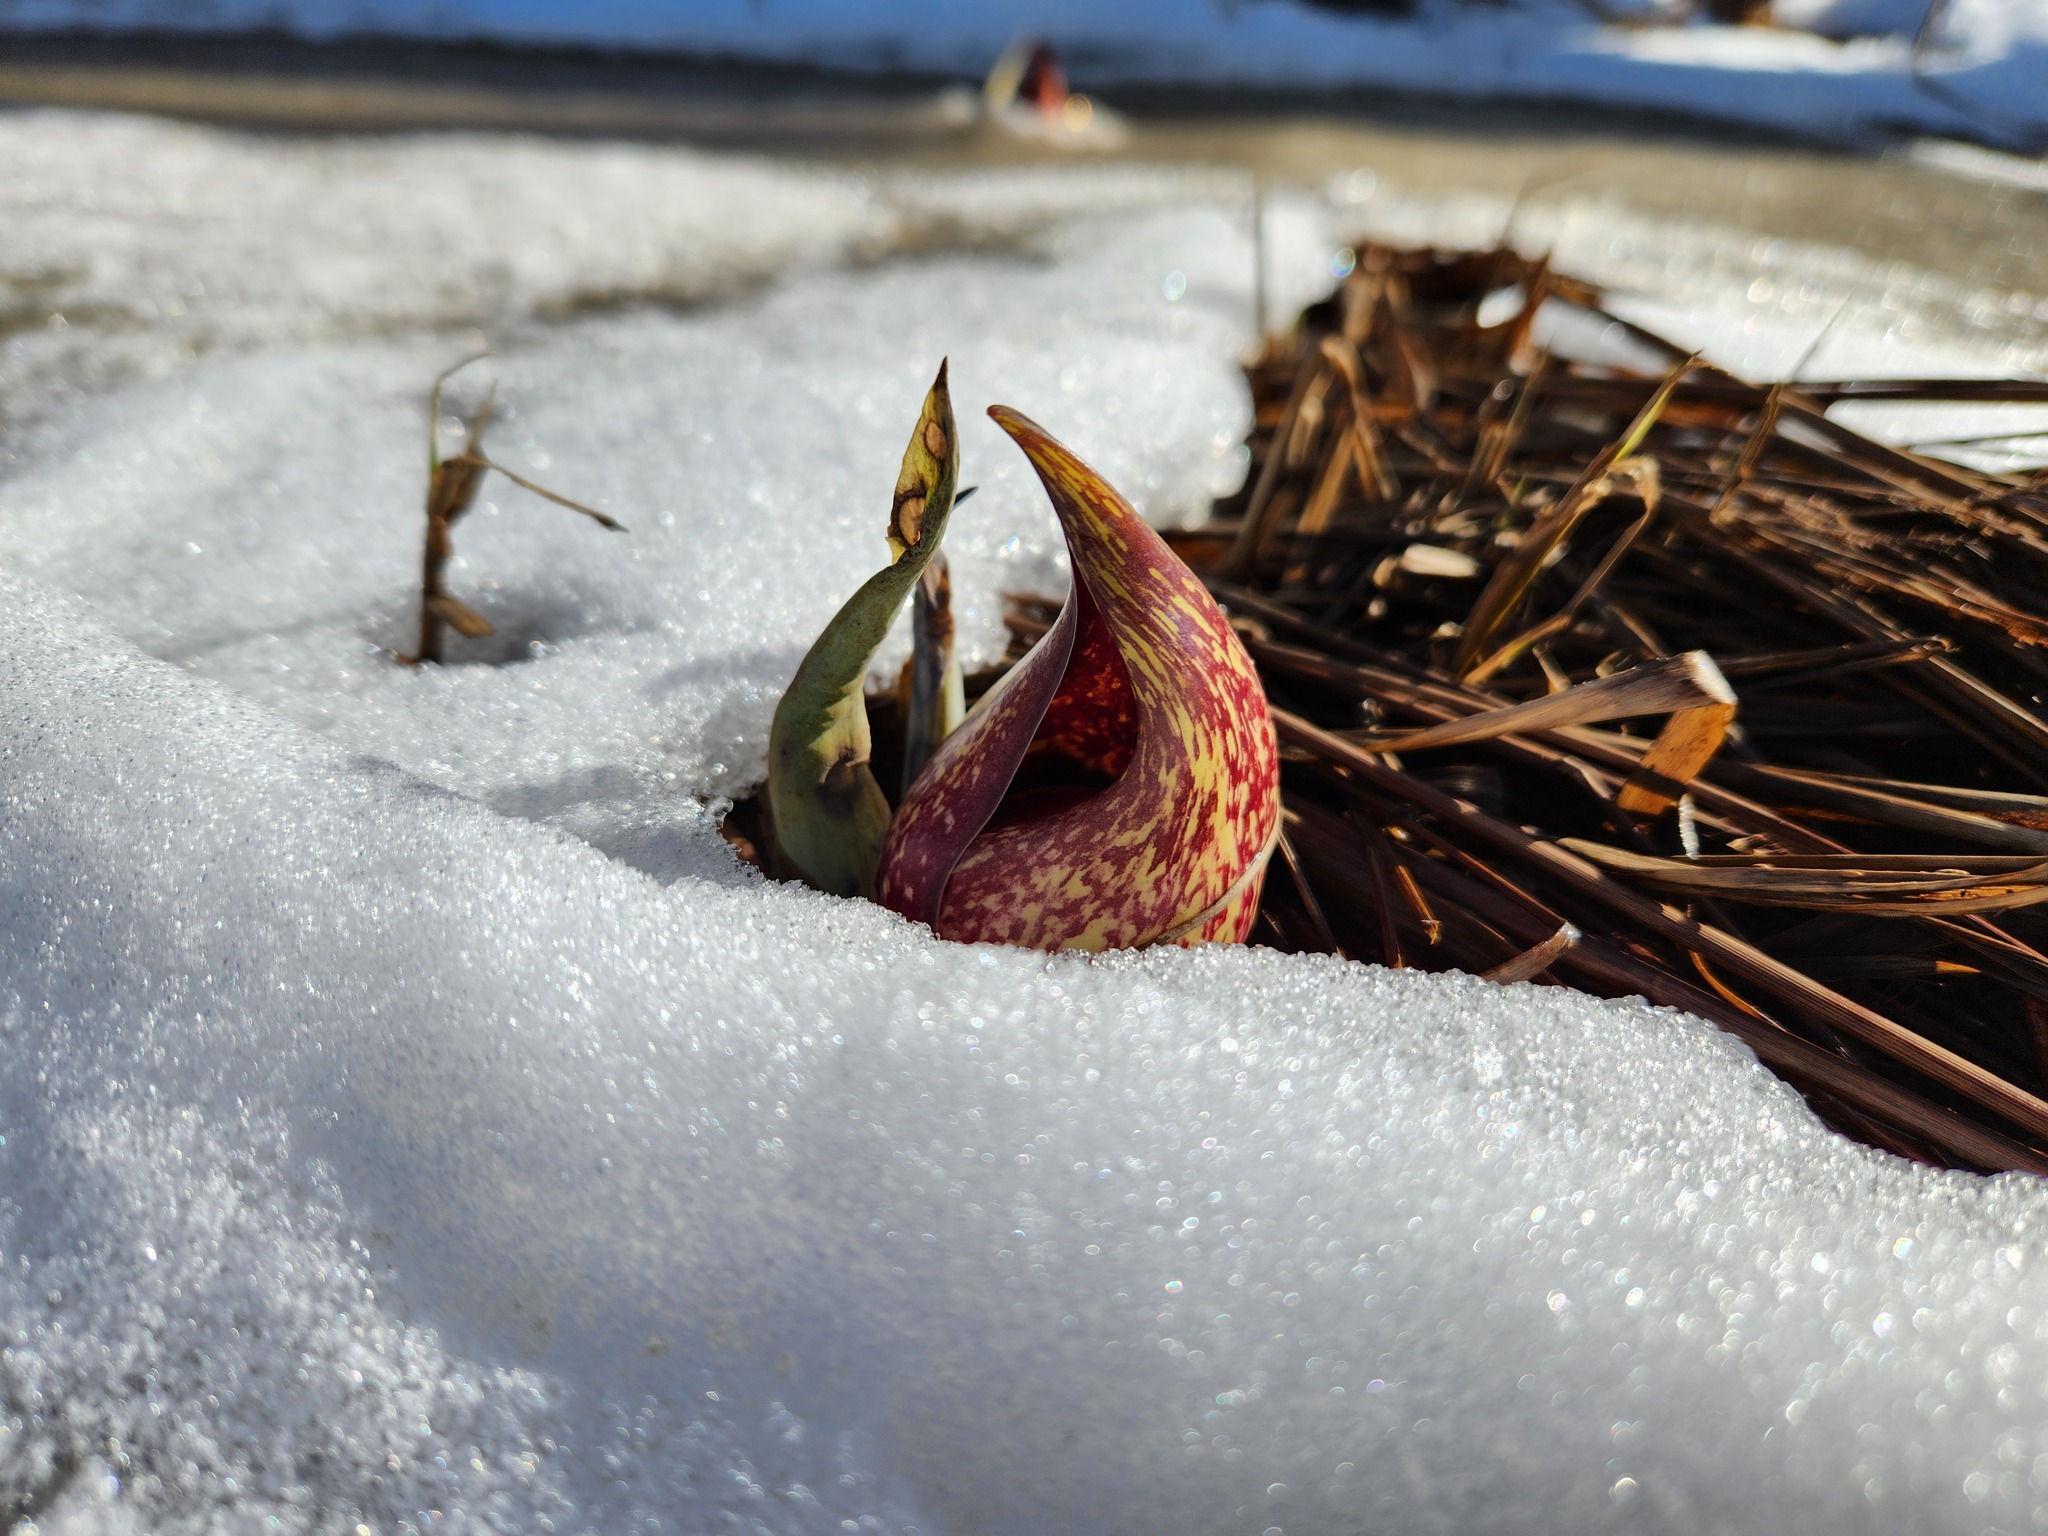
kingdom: Plantae
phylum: Tracheophyta
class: Liliopsida
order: Alismatales
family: Araceae
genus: Symplocarpus
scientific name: Symplocarpus foetidus
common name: Eastern skunk cabbage
